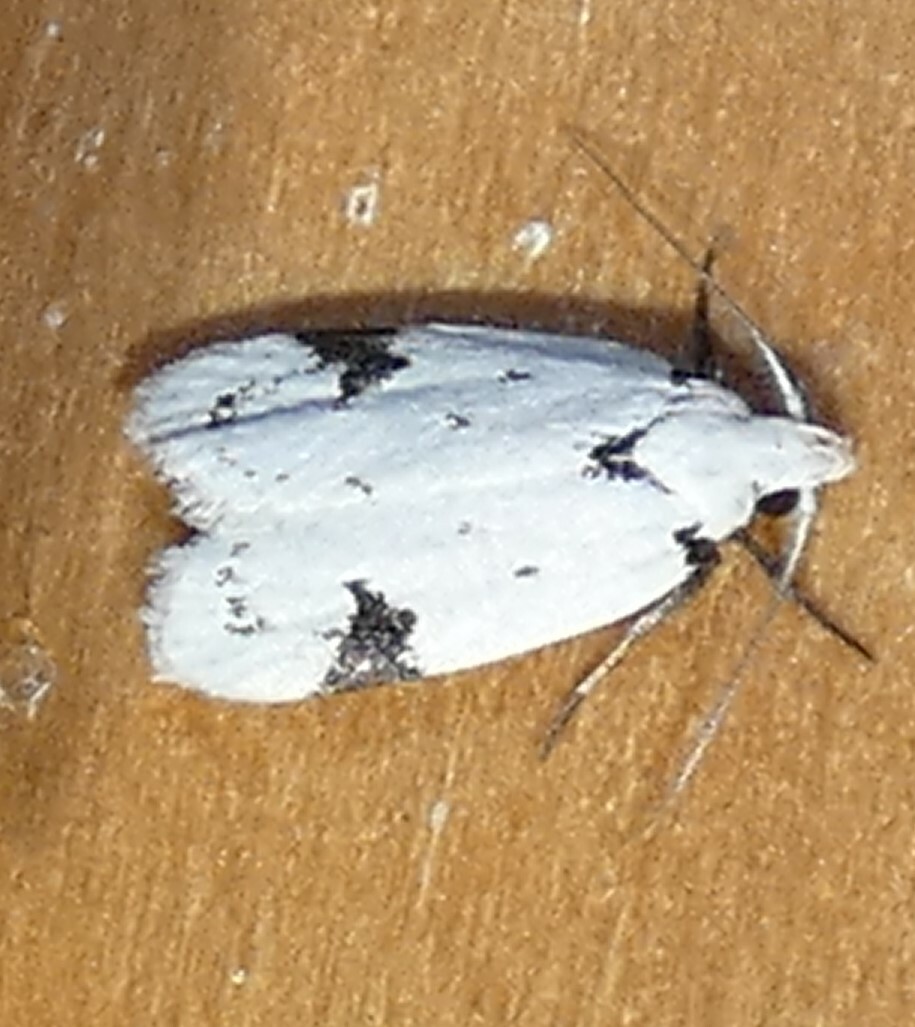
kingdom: Animalia
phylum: Arthropoda
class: Insecta
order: Lepidoptera
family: Oecophoridae
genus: Inga
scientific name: Inga sparsiciliella
